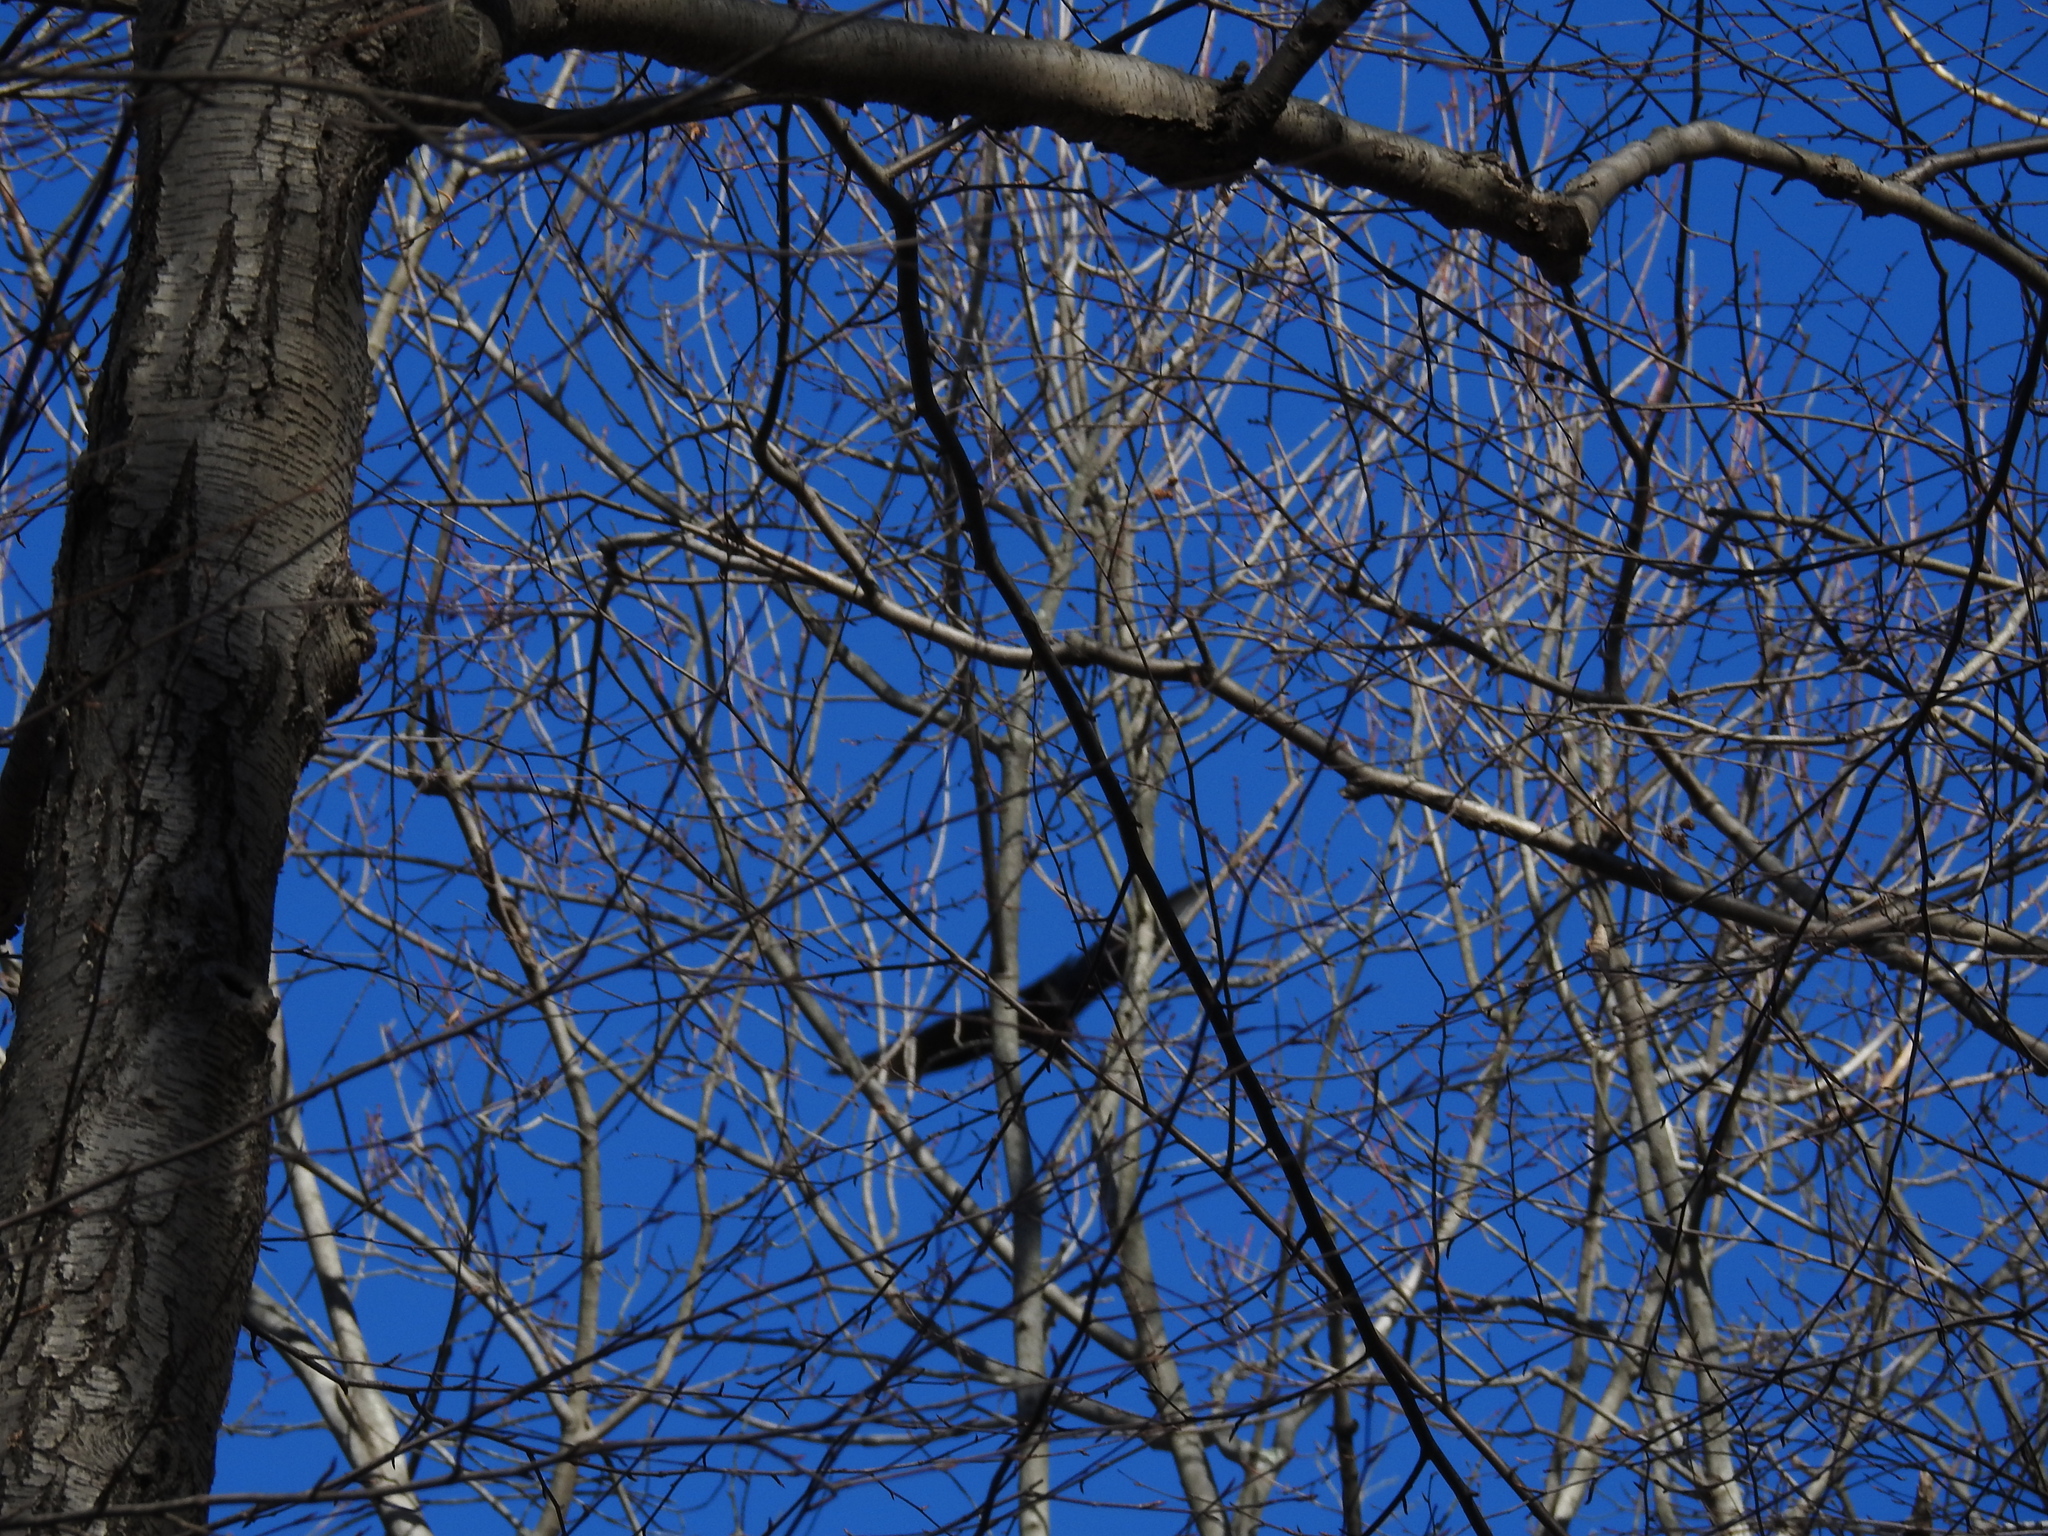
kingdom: Animalia
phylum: Chordata
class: Aves
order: Accipitriformes
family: Cathartidae
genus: Coragyps
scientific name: Coragyps atratus
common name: Black vulture
